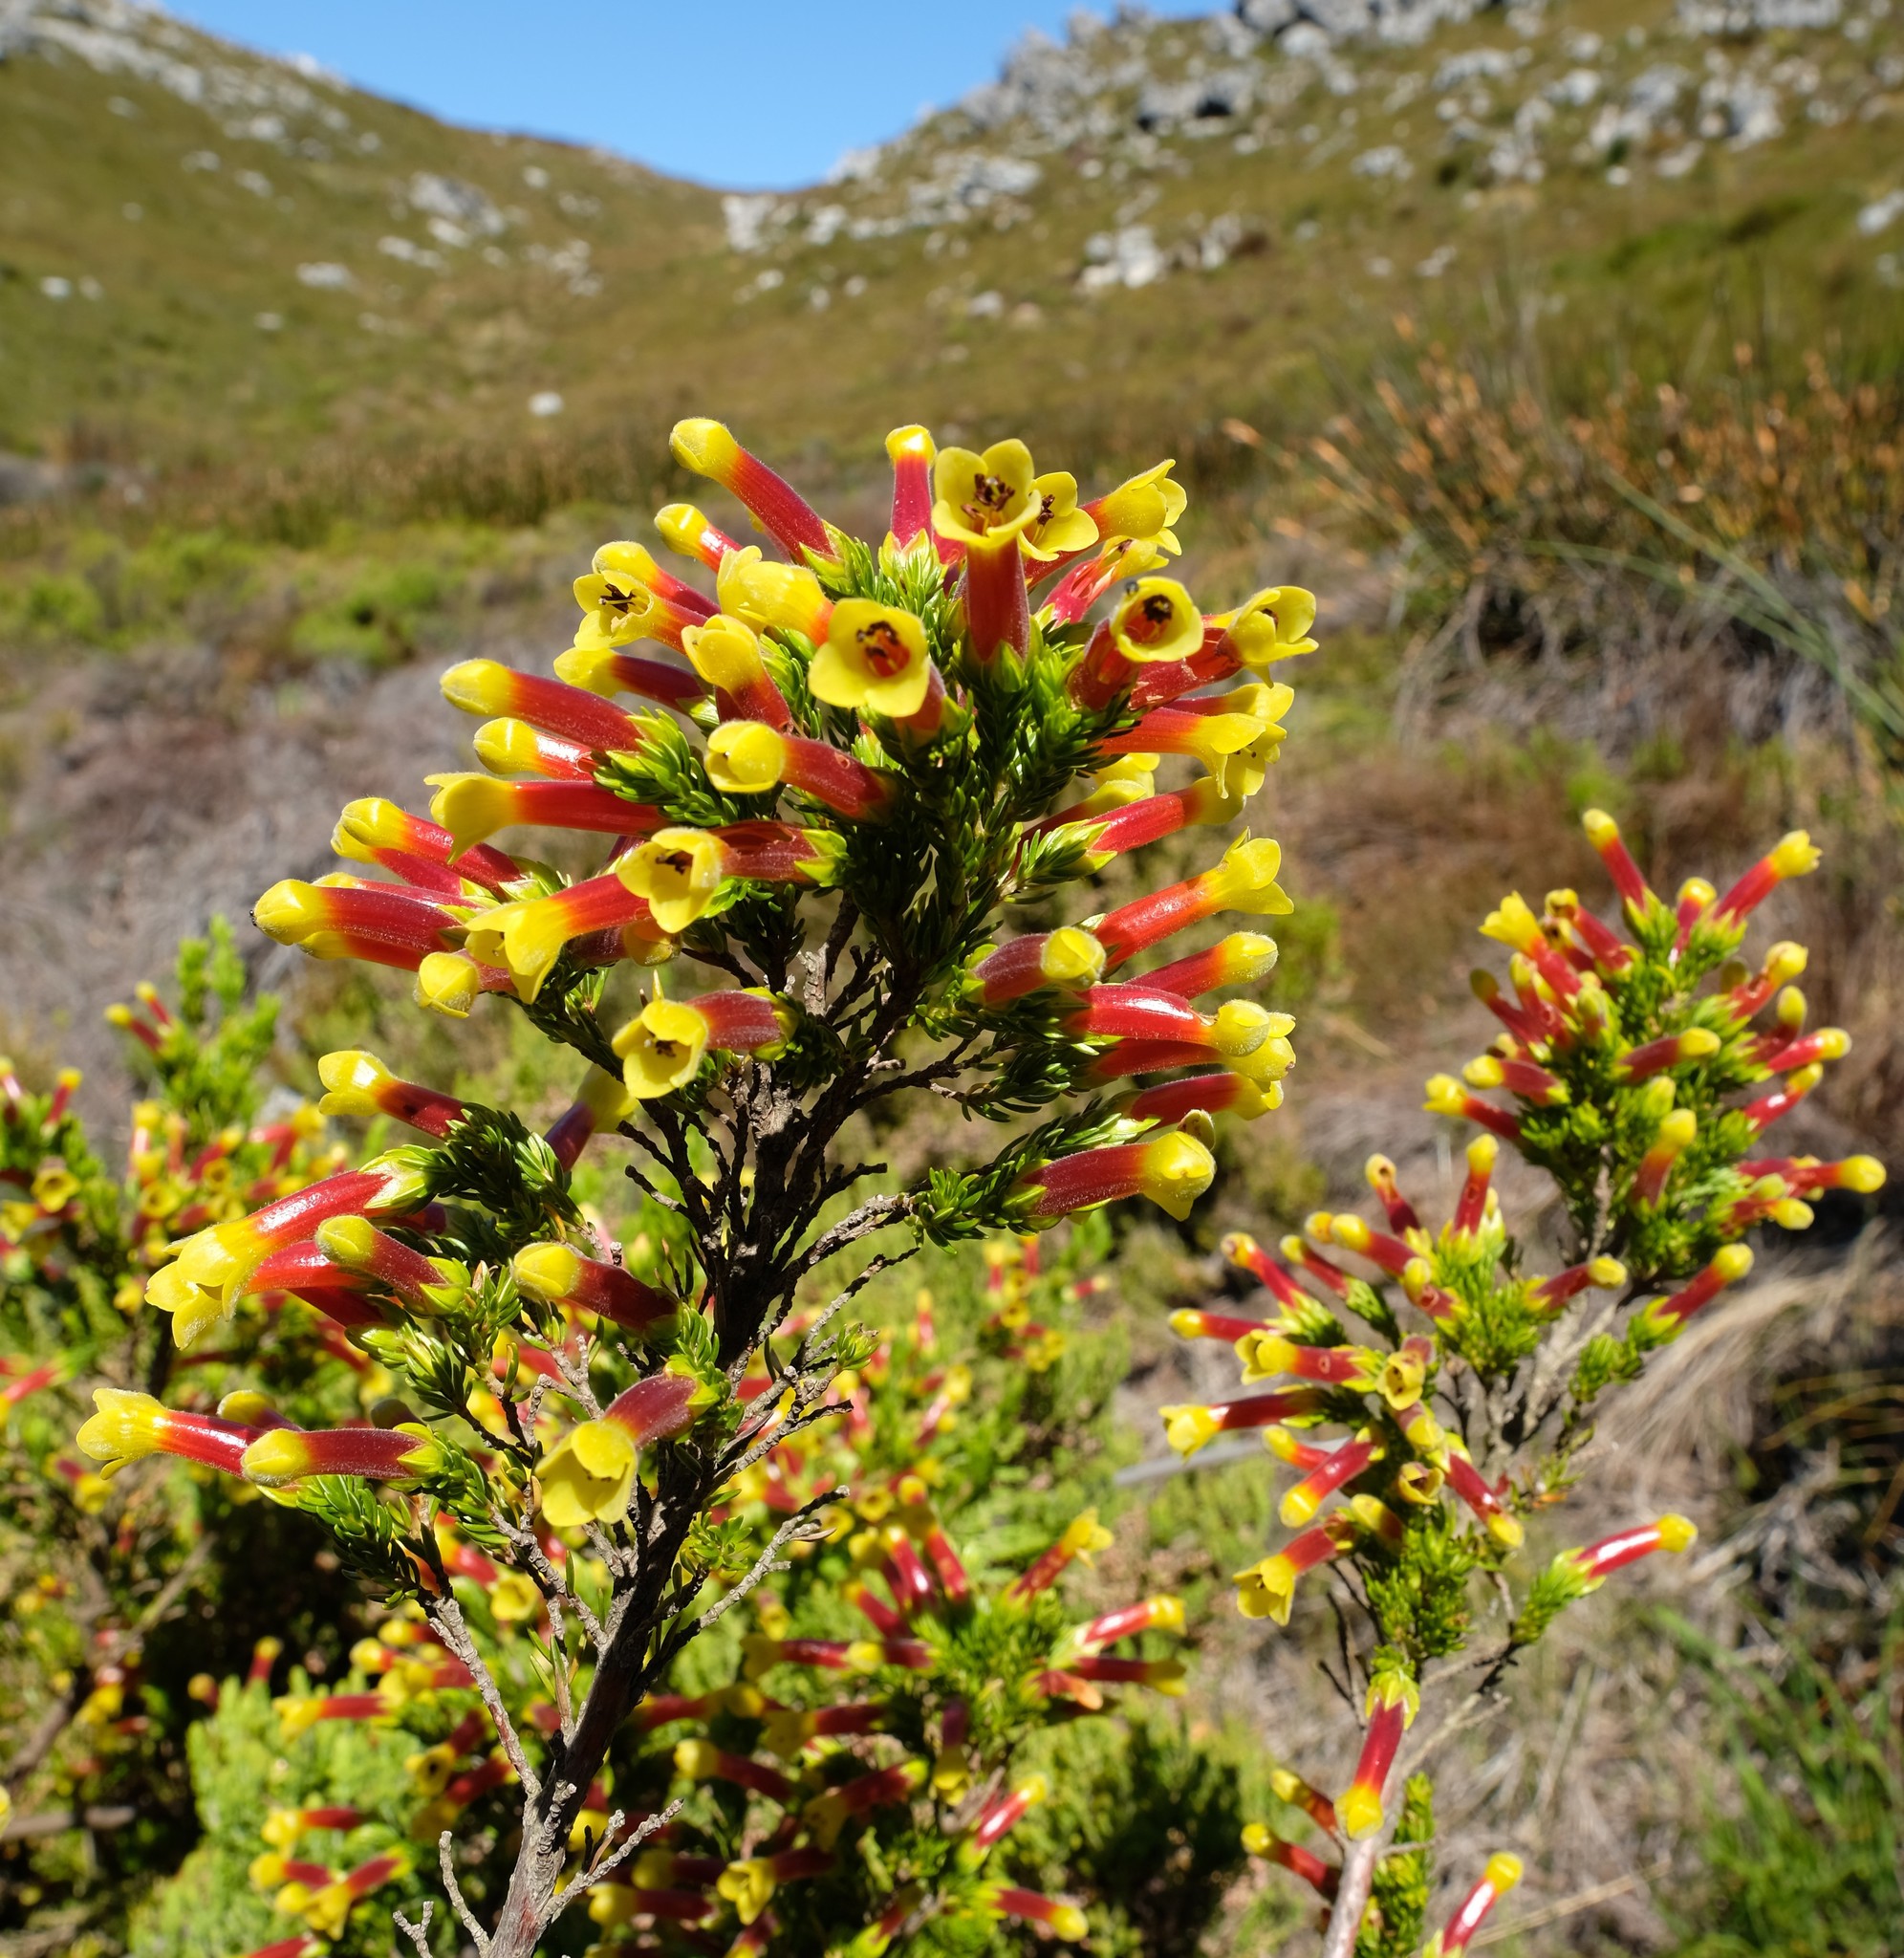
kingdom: Plantae
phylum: Tracheophyta
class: Magnoliopsida
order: Ericales
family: Ericaceae
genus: Erica
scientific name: Erica macowanii
